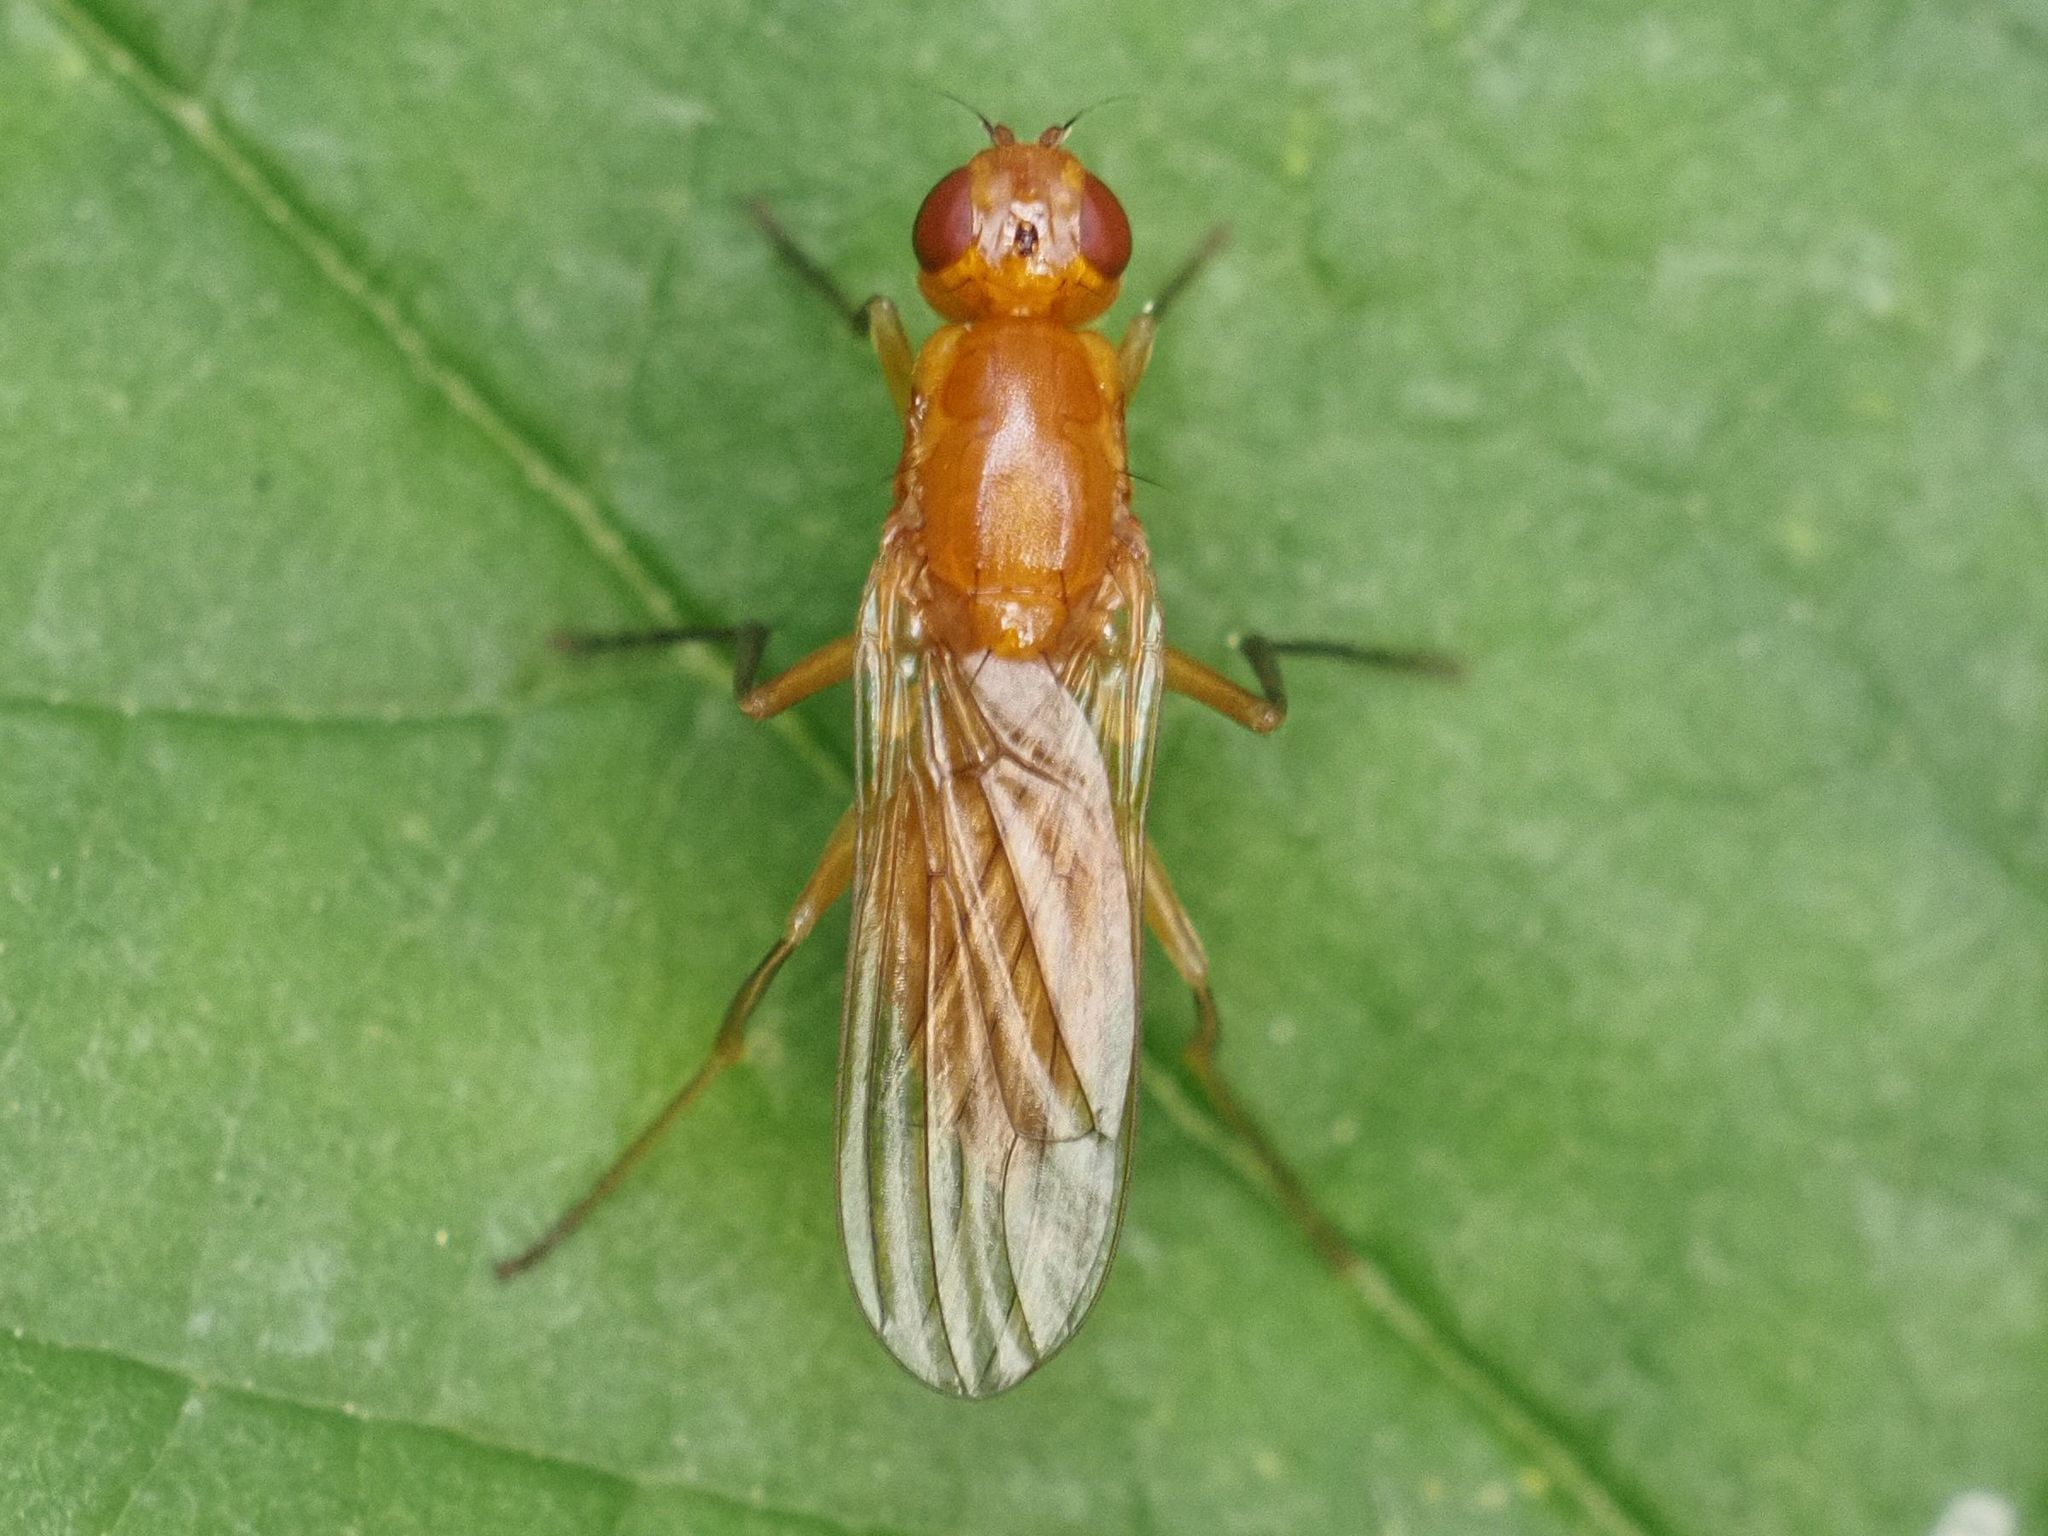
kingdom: Animalia
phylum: Arthropoda
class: Insecta
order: Diptera
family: Psilidae
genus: Psila
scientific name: Psila fimetaria
